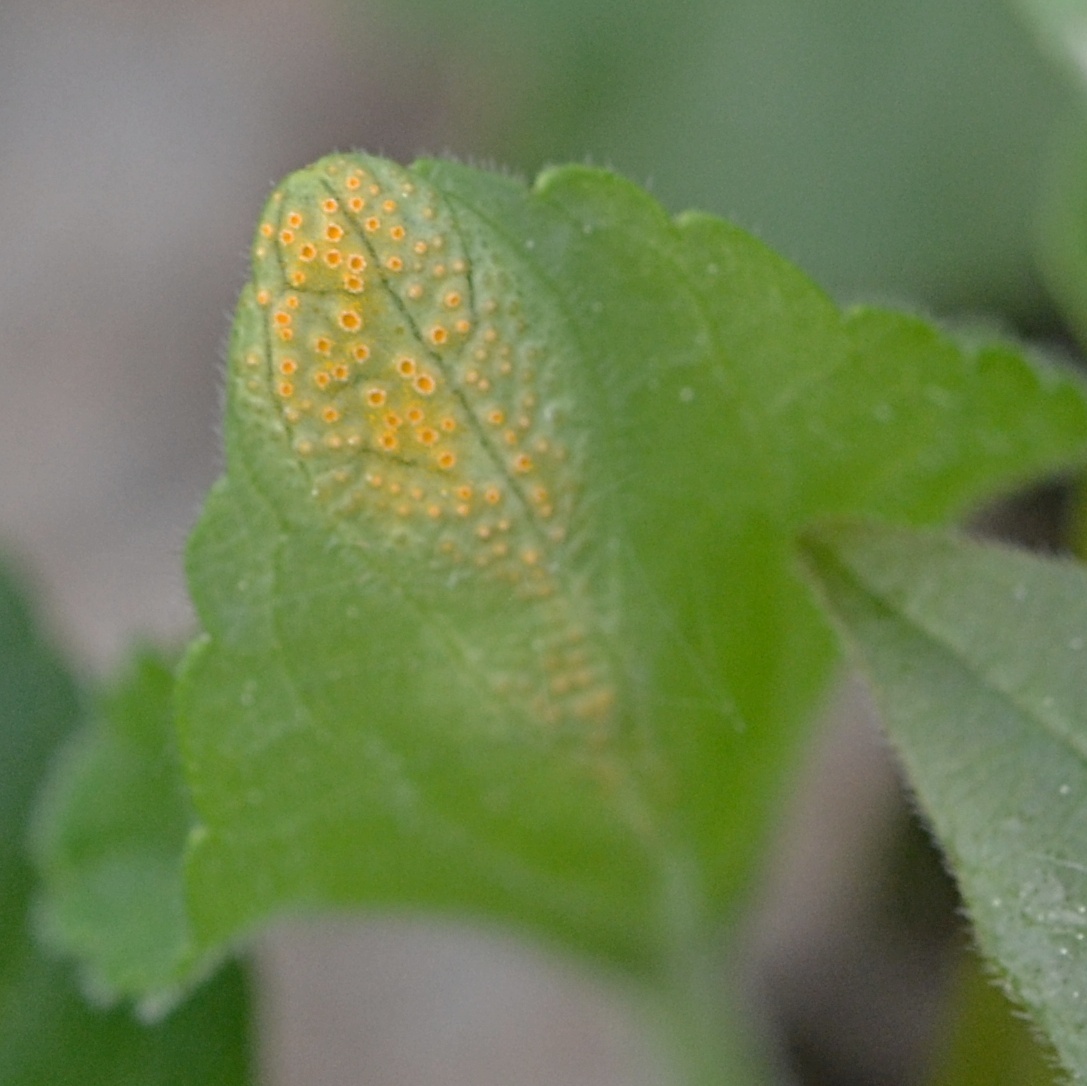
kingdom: Fungi
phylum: Basidiomycota
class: Pucciniomycetes
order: Pucciniales
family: Pucciniaceae
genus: Puccinia
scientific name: Puccinia violae
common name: Violet rust
